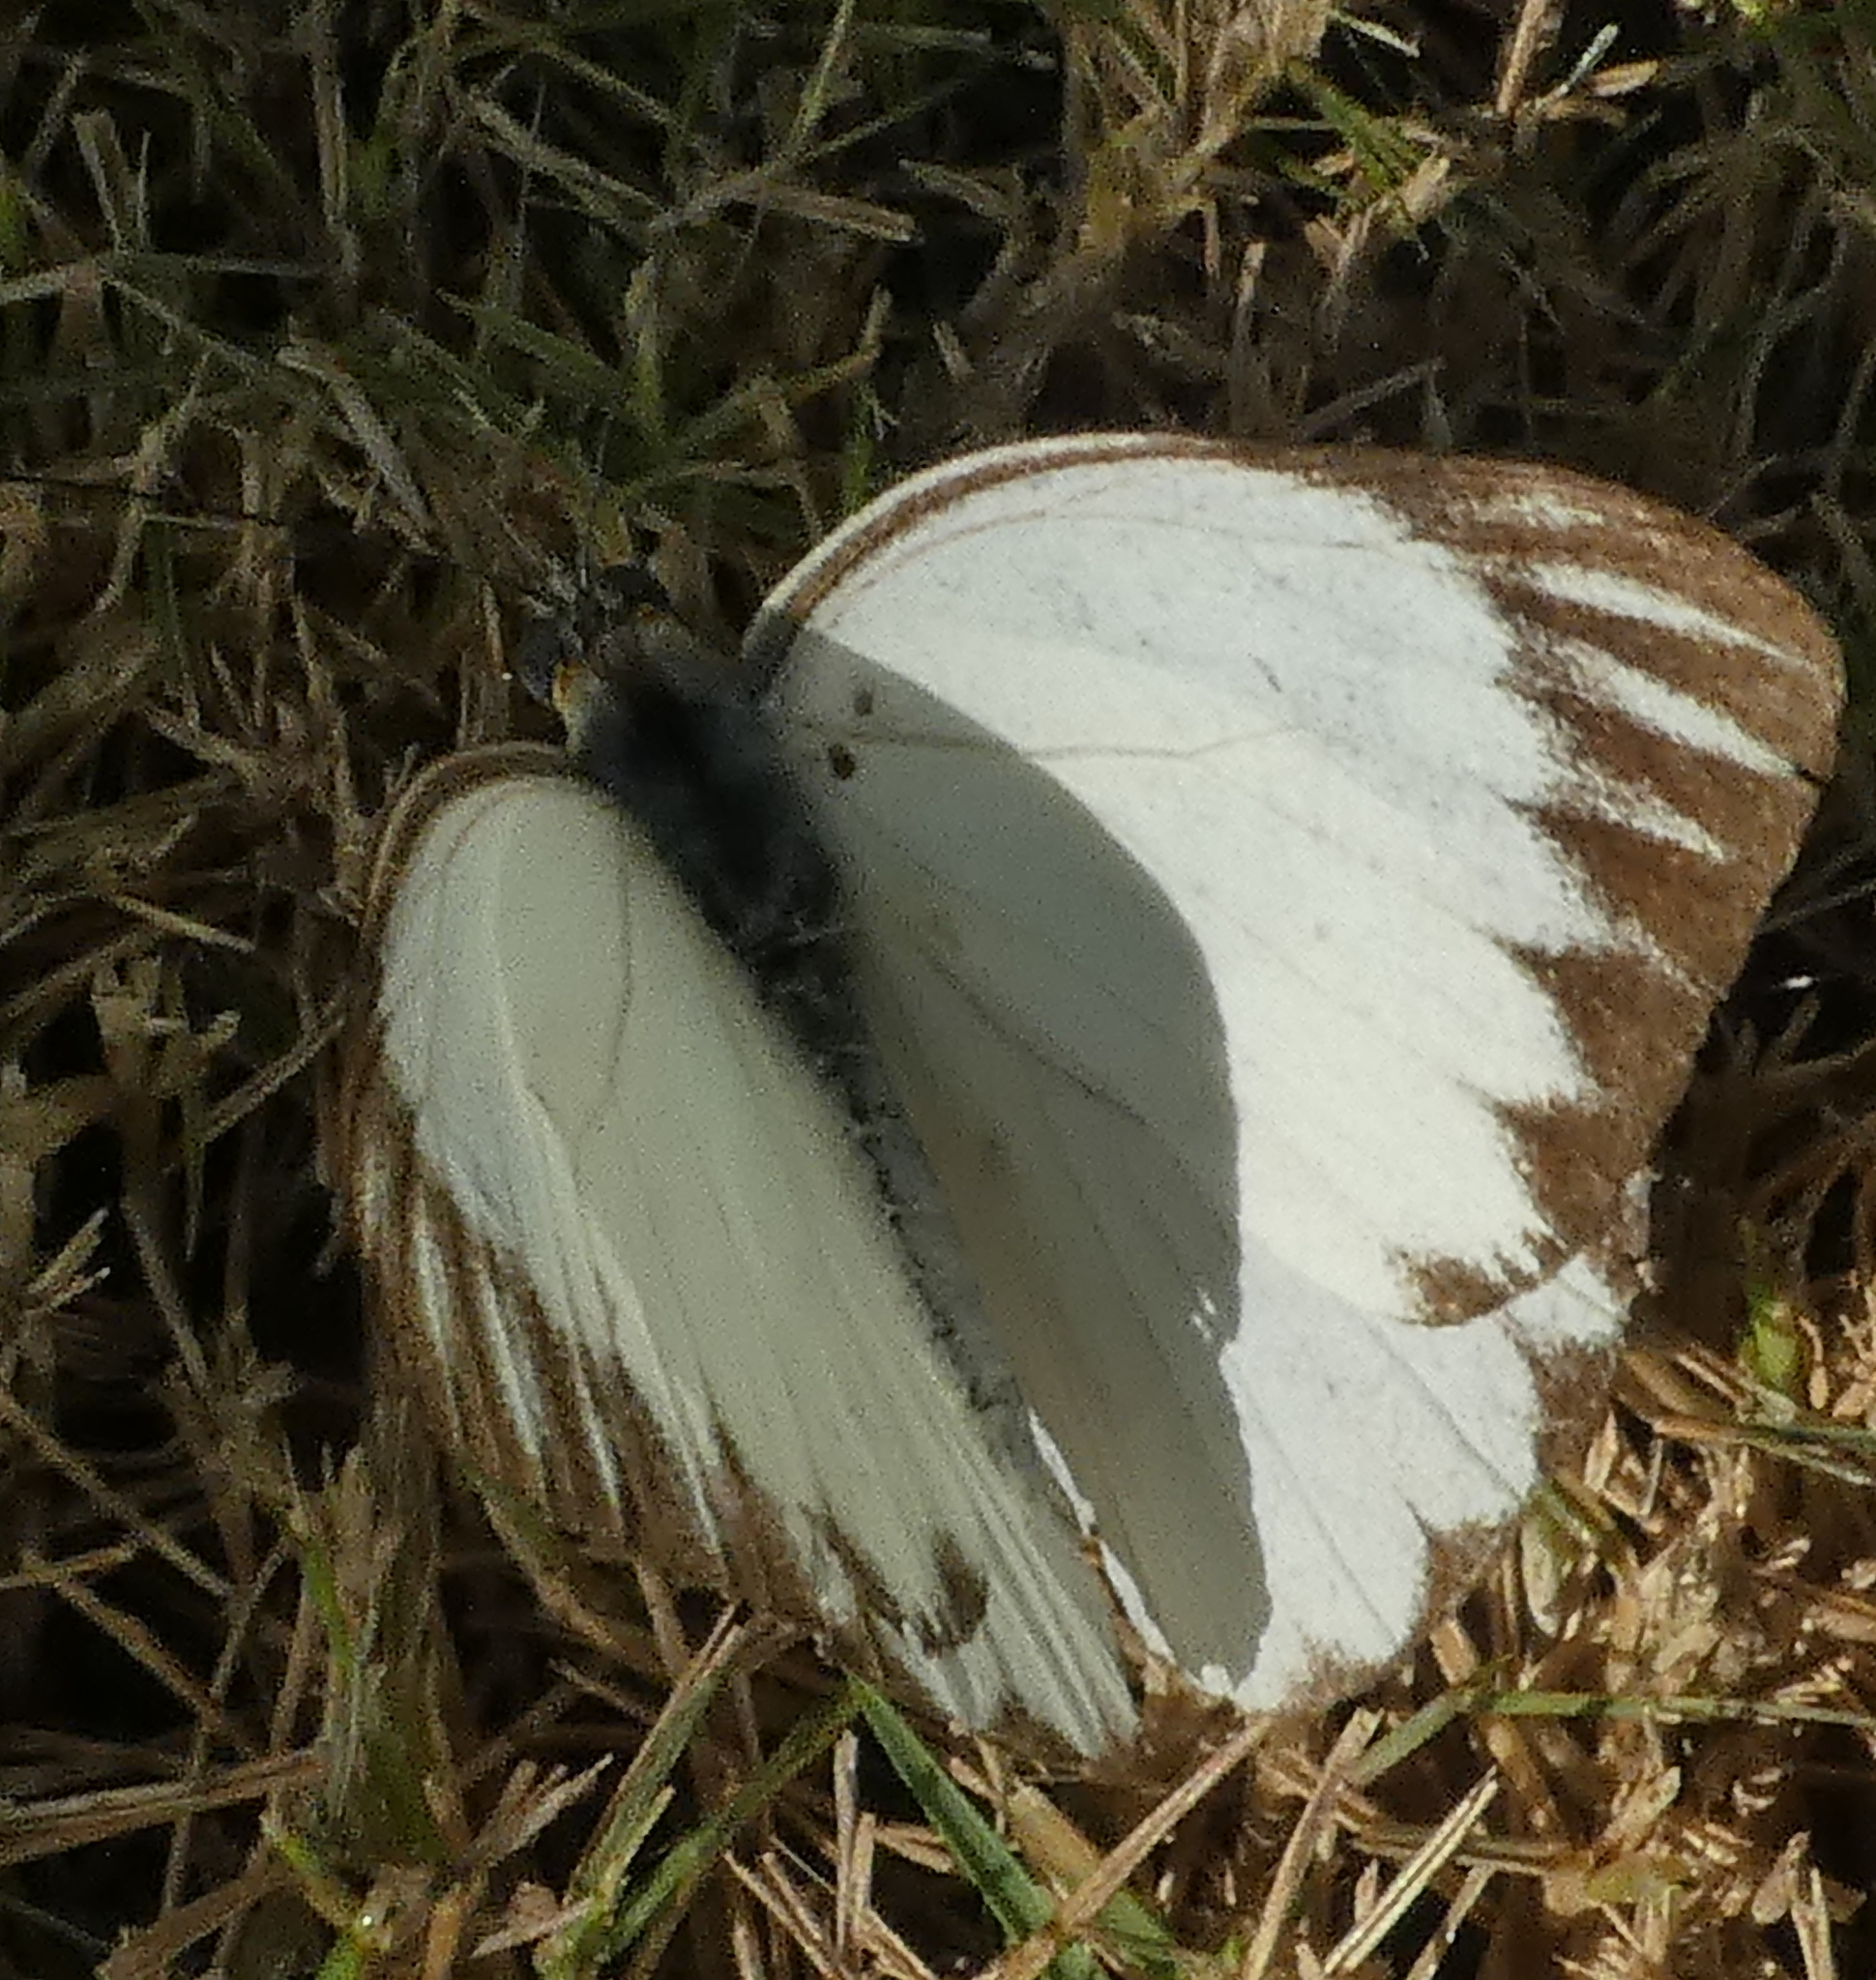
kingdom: Animalia
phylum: Arthropoda
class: Insecta
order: Lepidoptera
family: Pieridae
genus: Ascia
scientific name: Ascia monuste
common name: Great southern white
